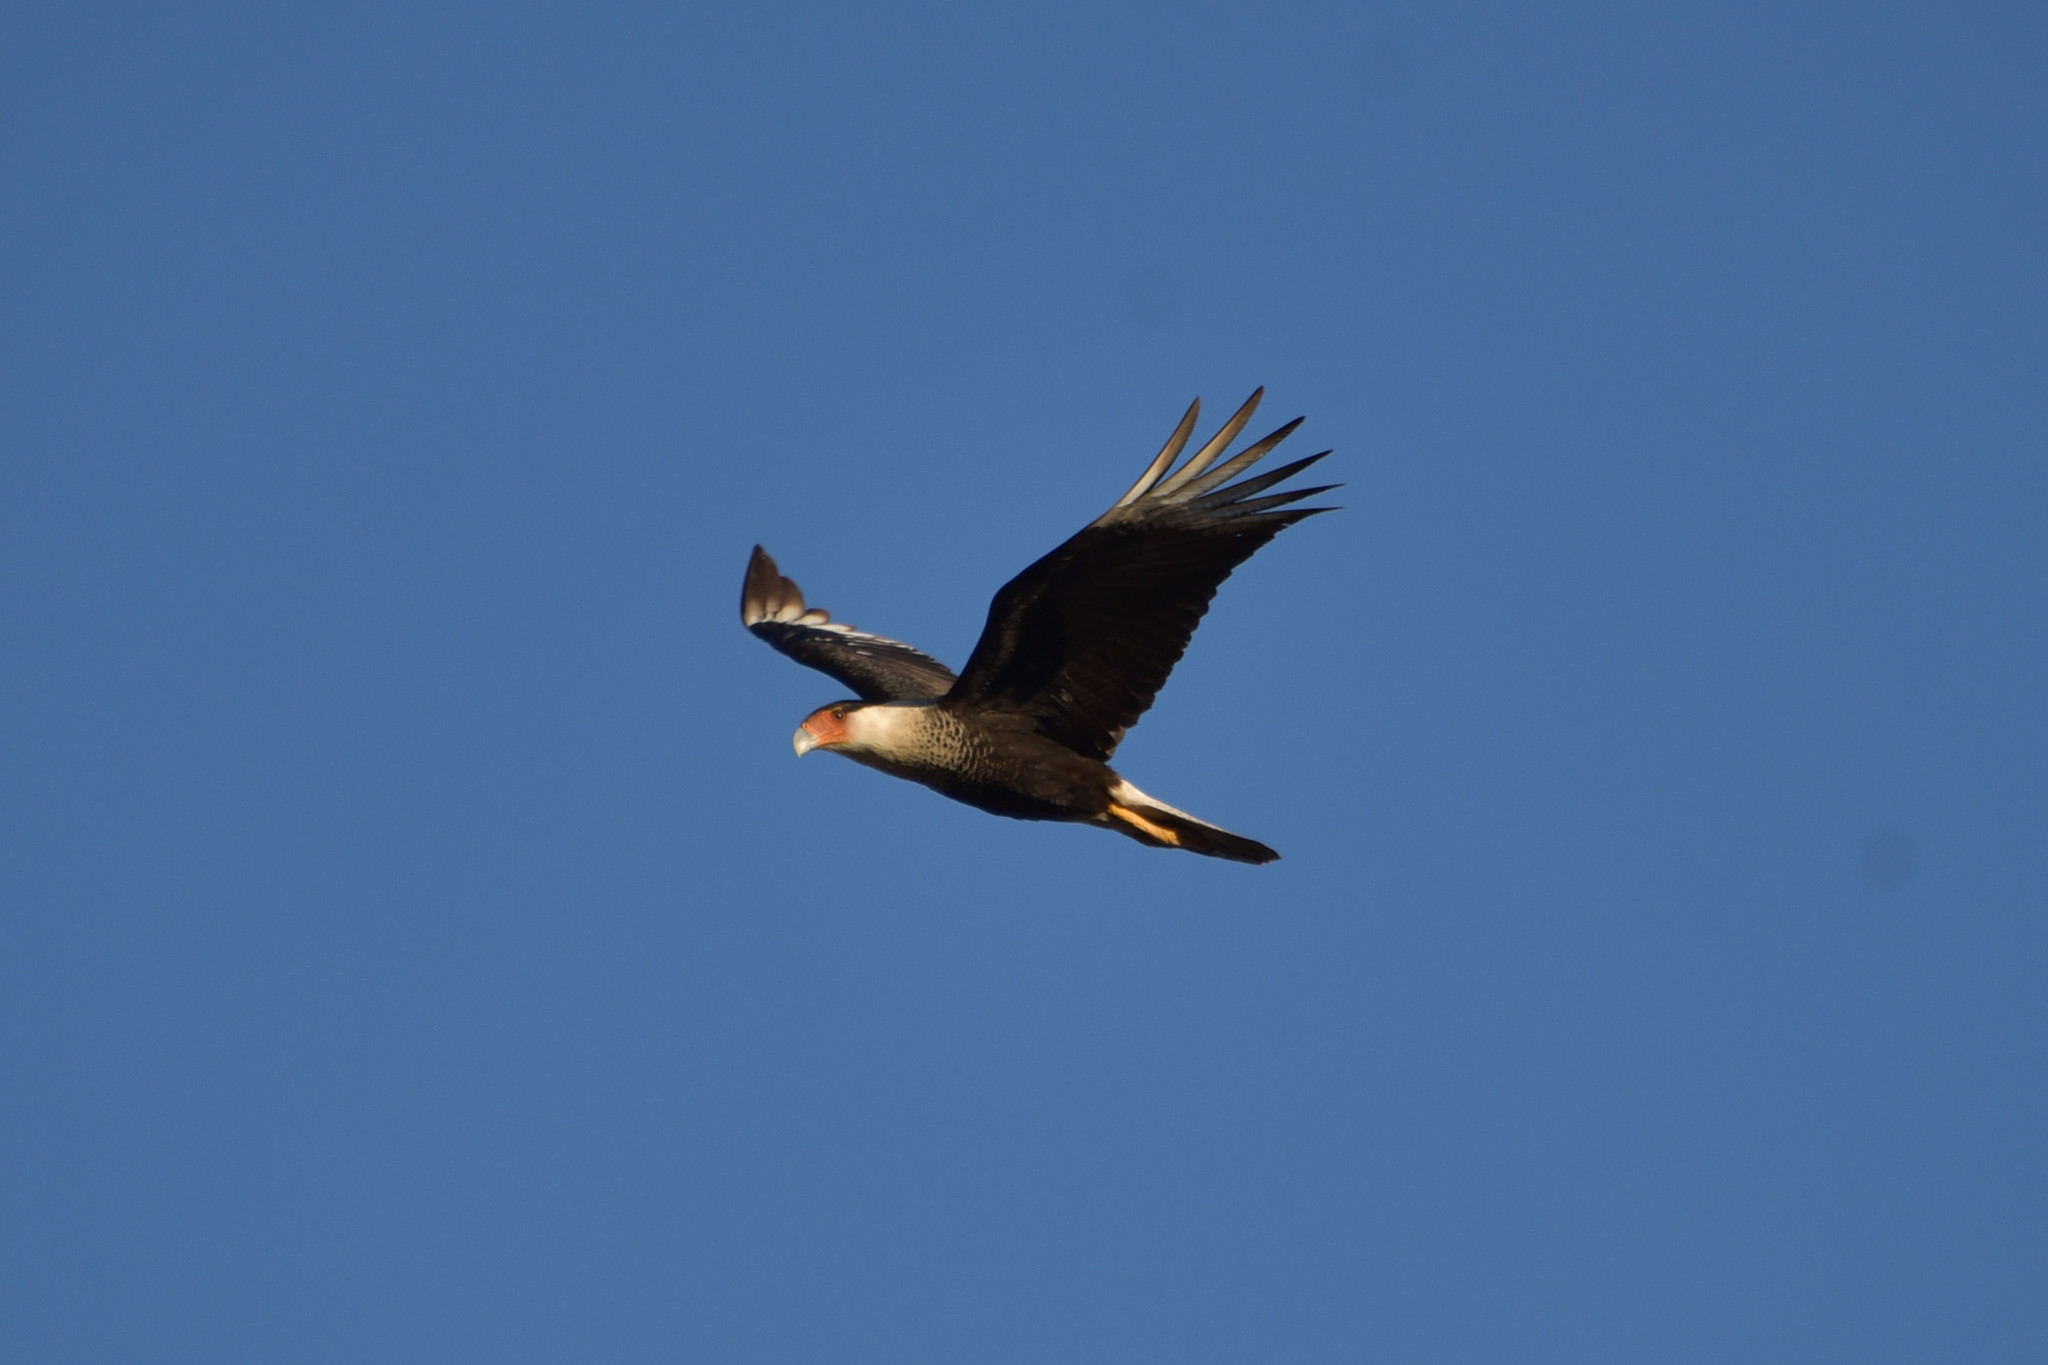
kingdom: Animalia
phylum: Chordata
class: Aves
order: Falconiformes
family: Falconidae
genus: Caracara
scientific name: Caracara plancus
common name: Southern caracara
